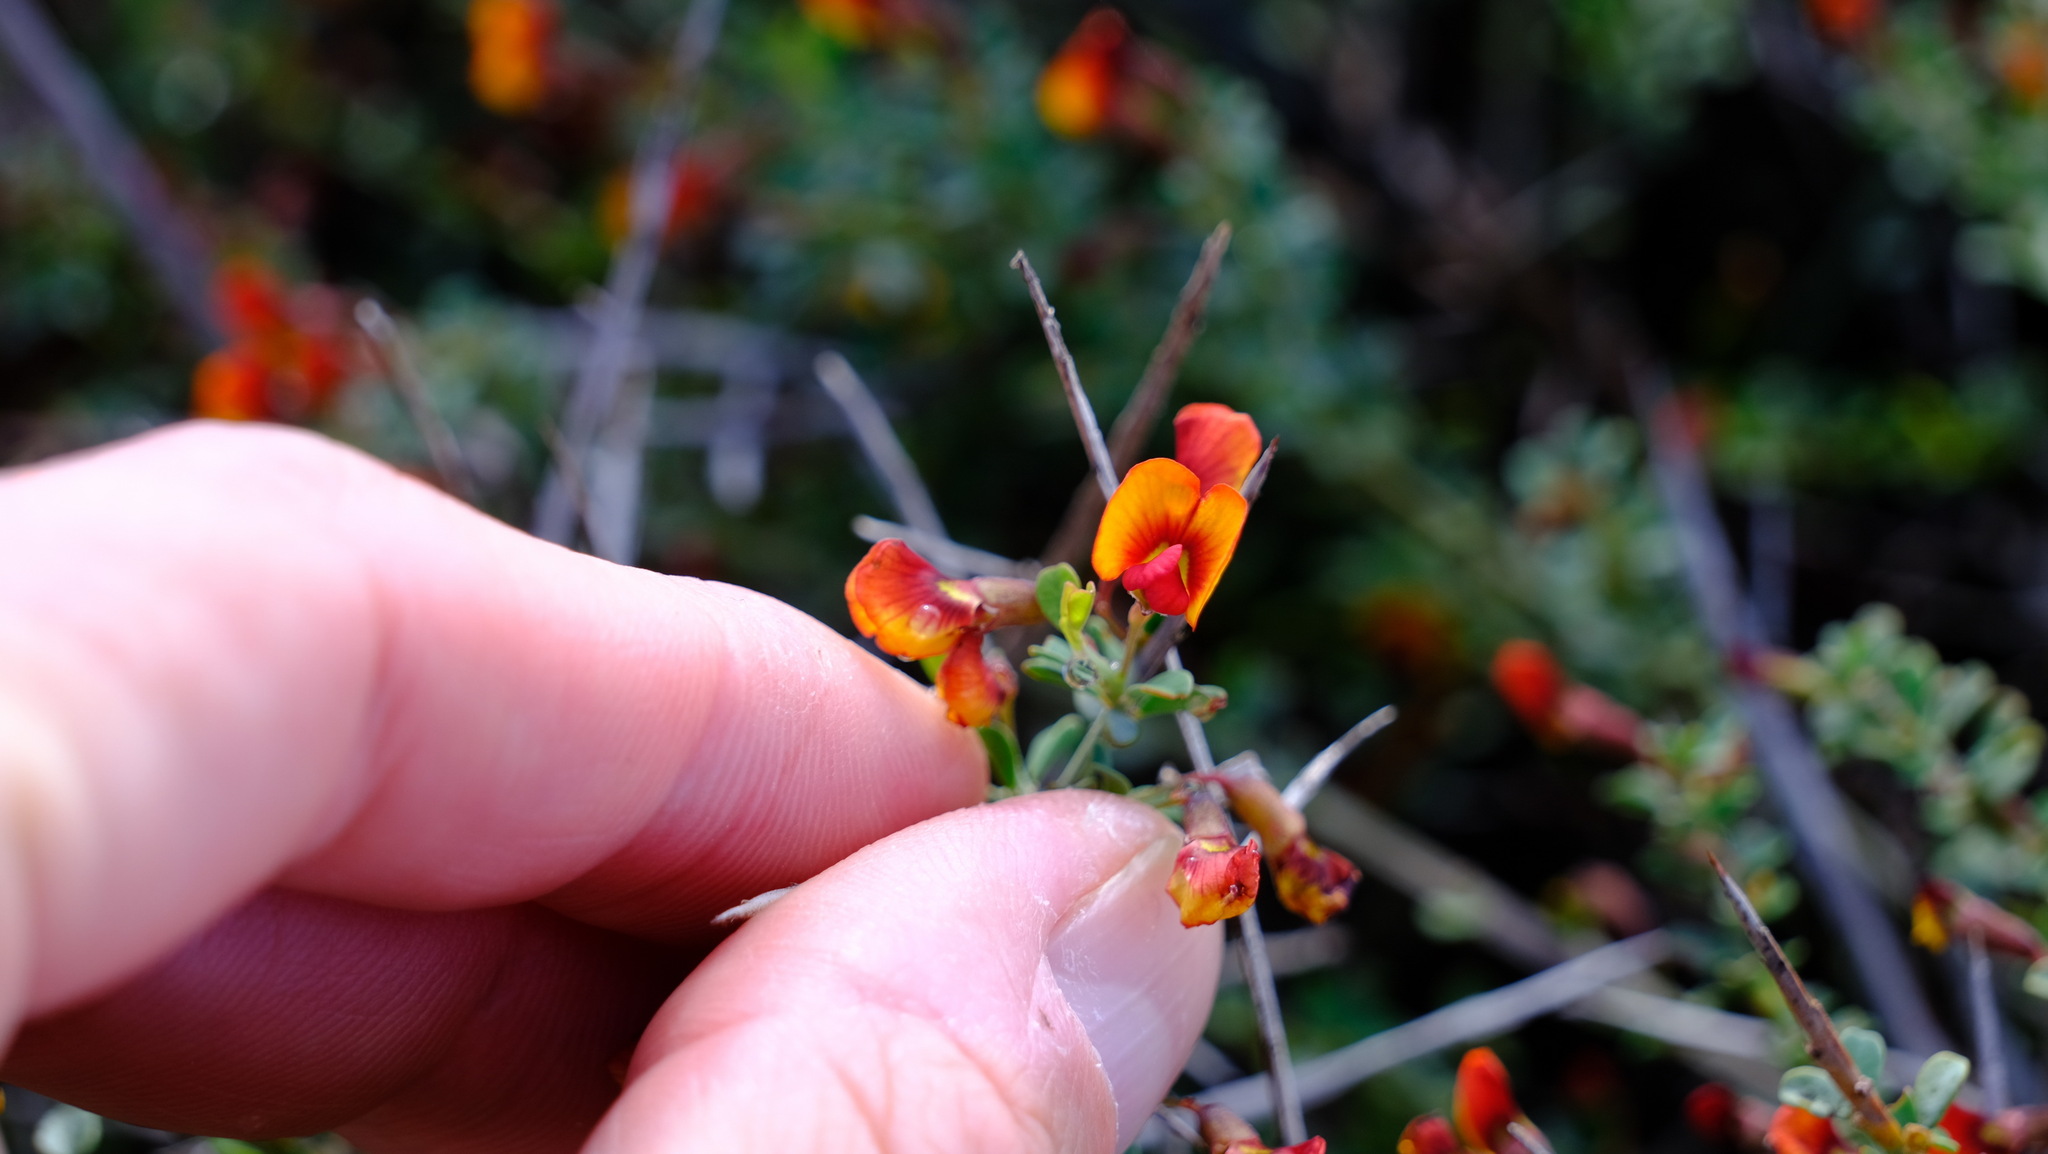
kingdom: Plantae
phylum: Tracheophyta
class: Magnoliopsida
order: Fabales
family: Fabaceae
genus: Bossiaea
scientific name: Bossiaea calcicola
